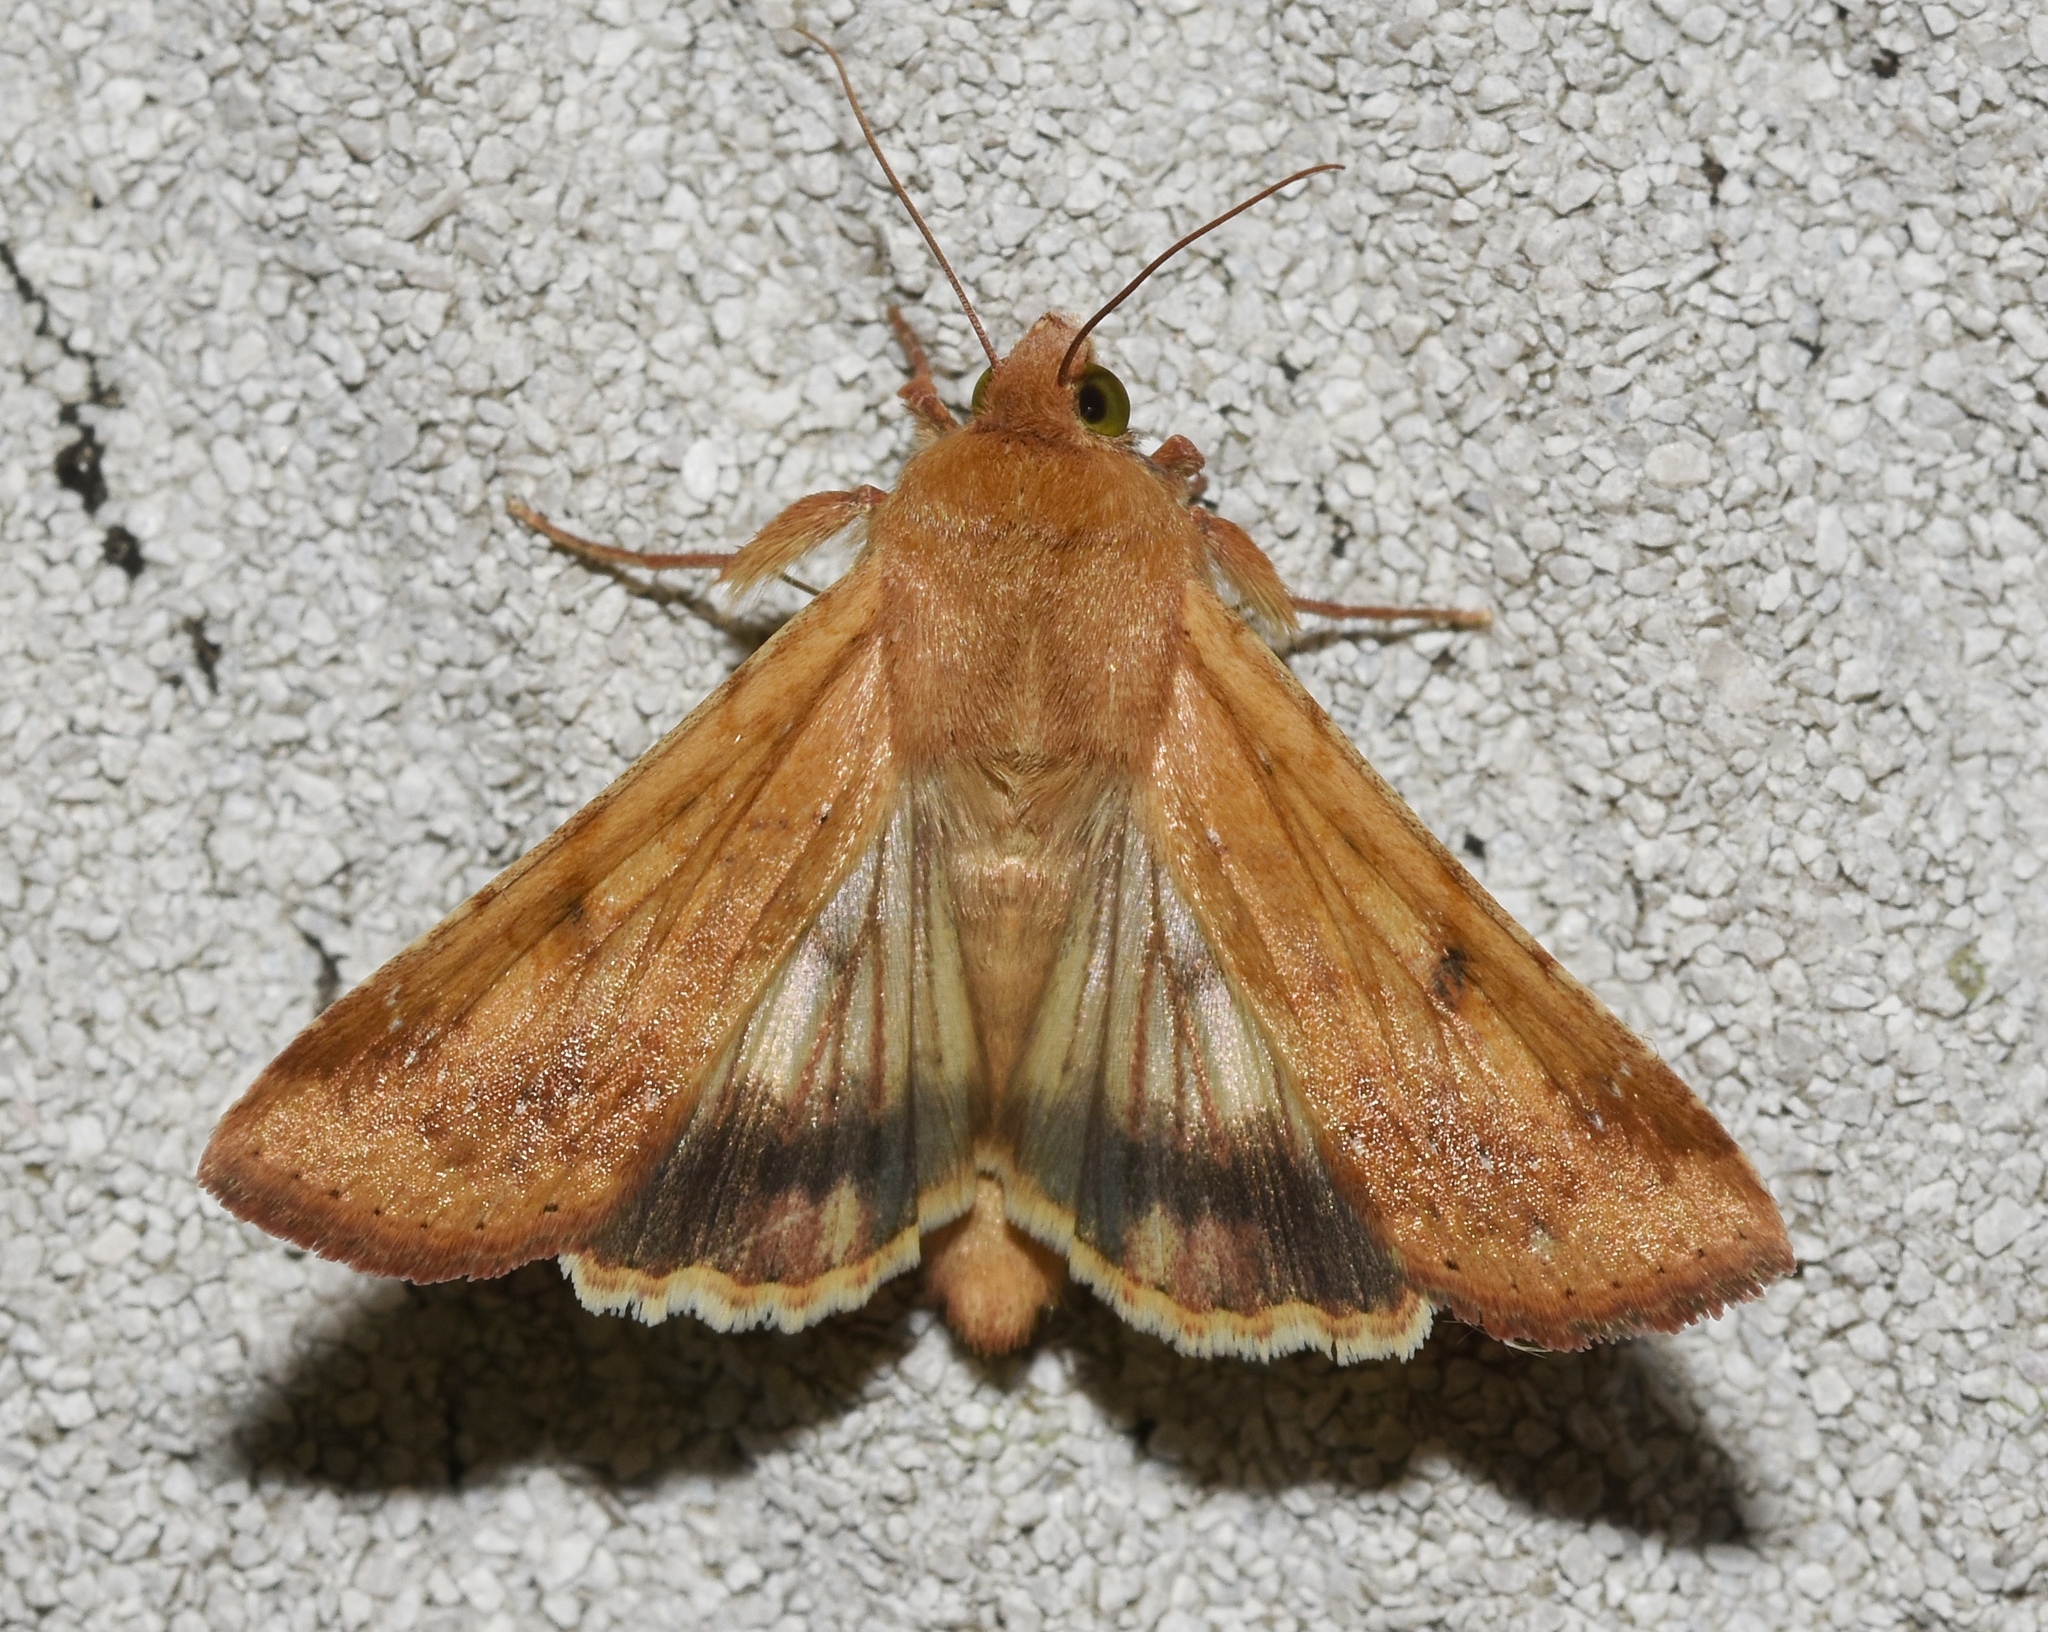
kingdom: Animalia
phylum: Arthropoda
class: Insecta
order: Lepidoptera
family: Noctuidae
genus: Helicoverpa
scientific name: Helicoverpa zea
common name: Bollworm
